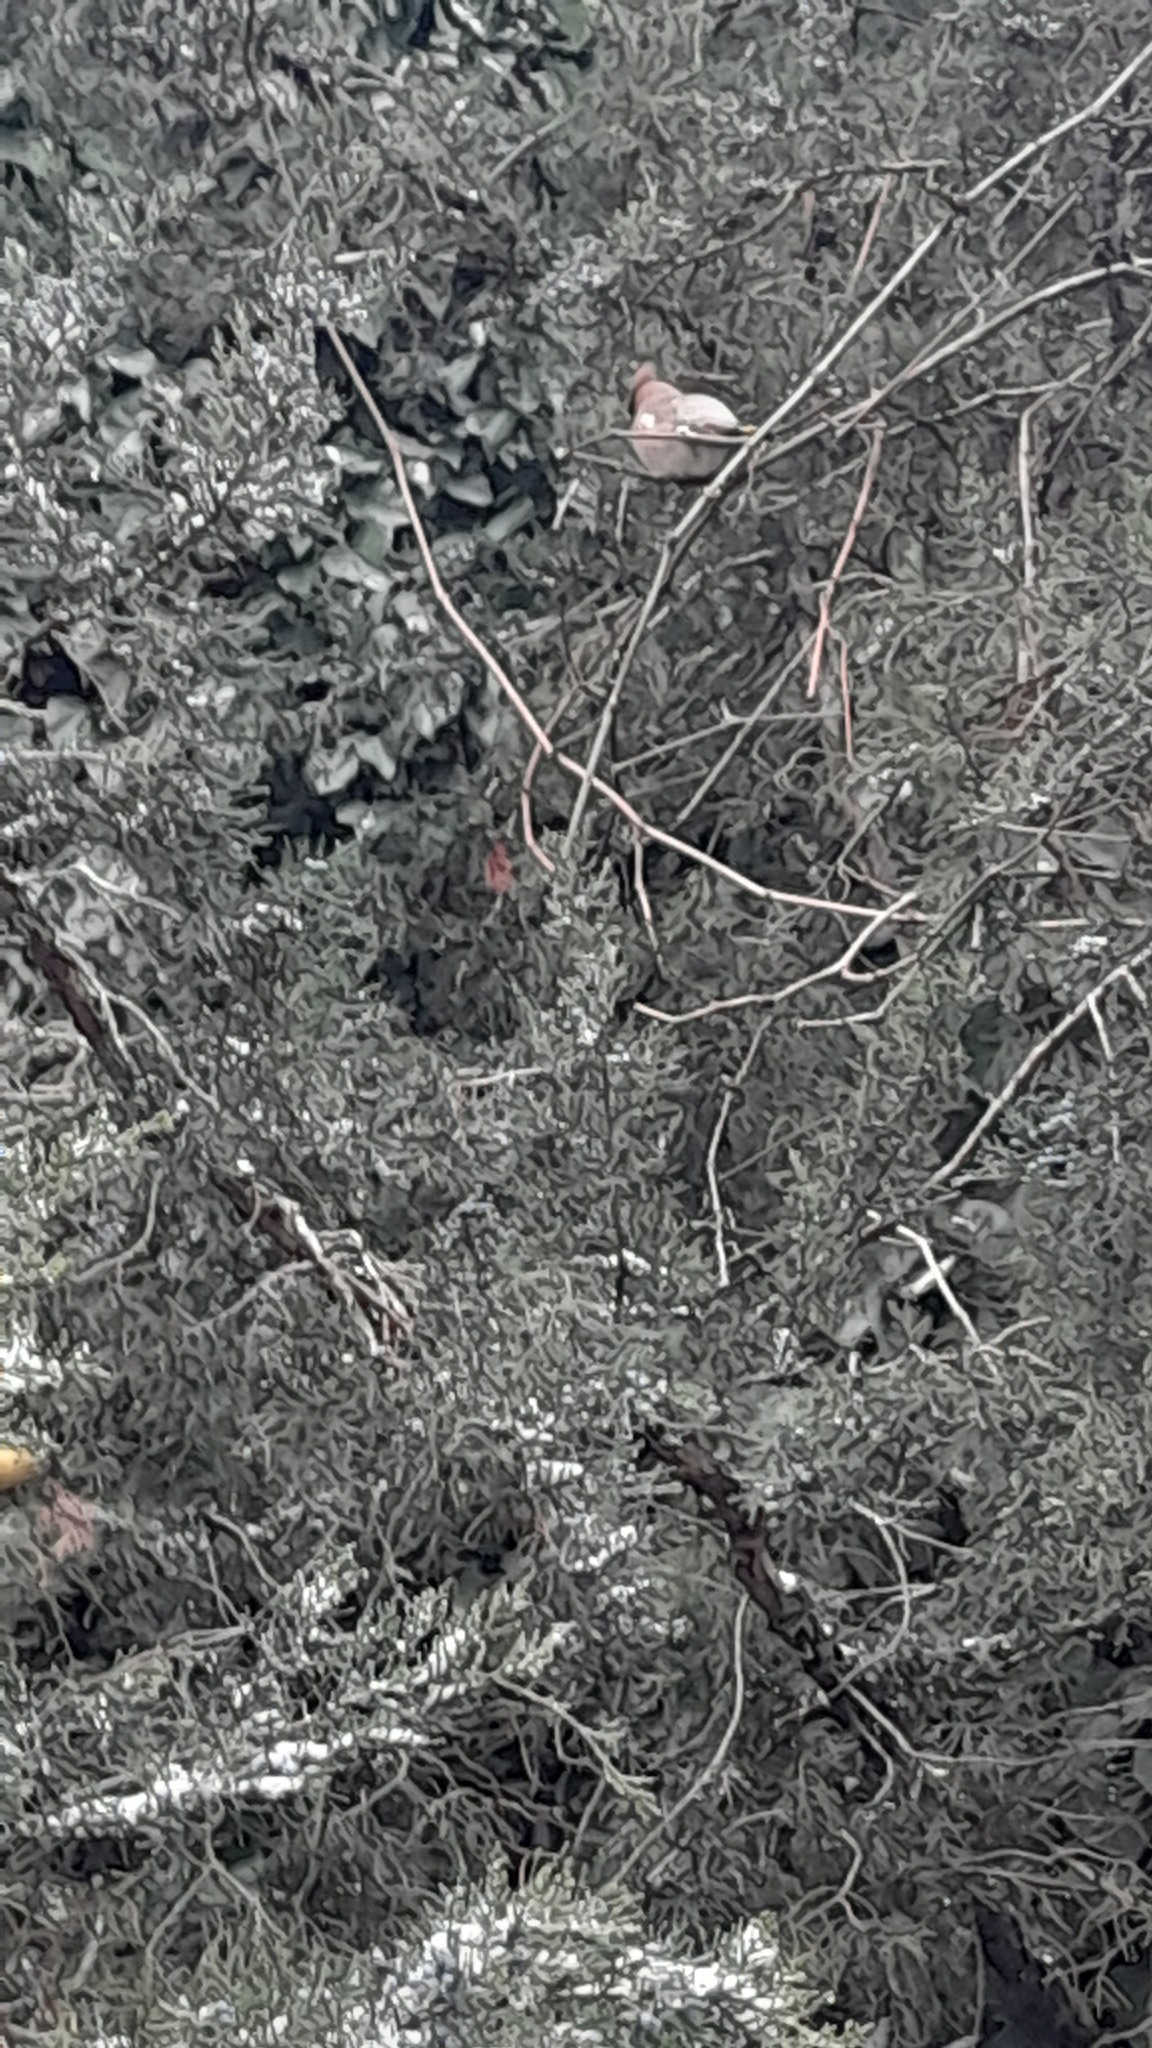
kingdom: Animalia
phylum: Chordata
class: Aves
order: Passeriformes
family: Bombycillidae
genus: Bombycilla
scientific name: Bombycilla garrulus
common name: Bohemian waxwing
